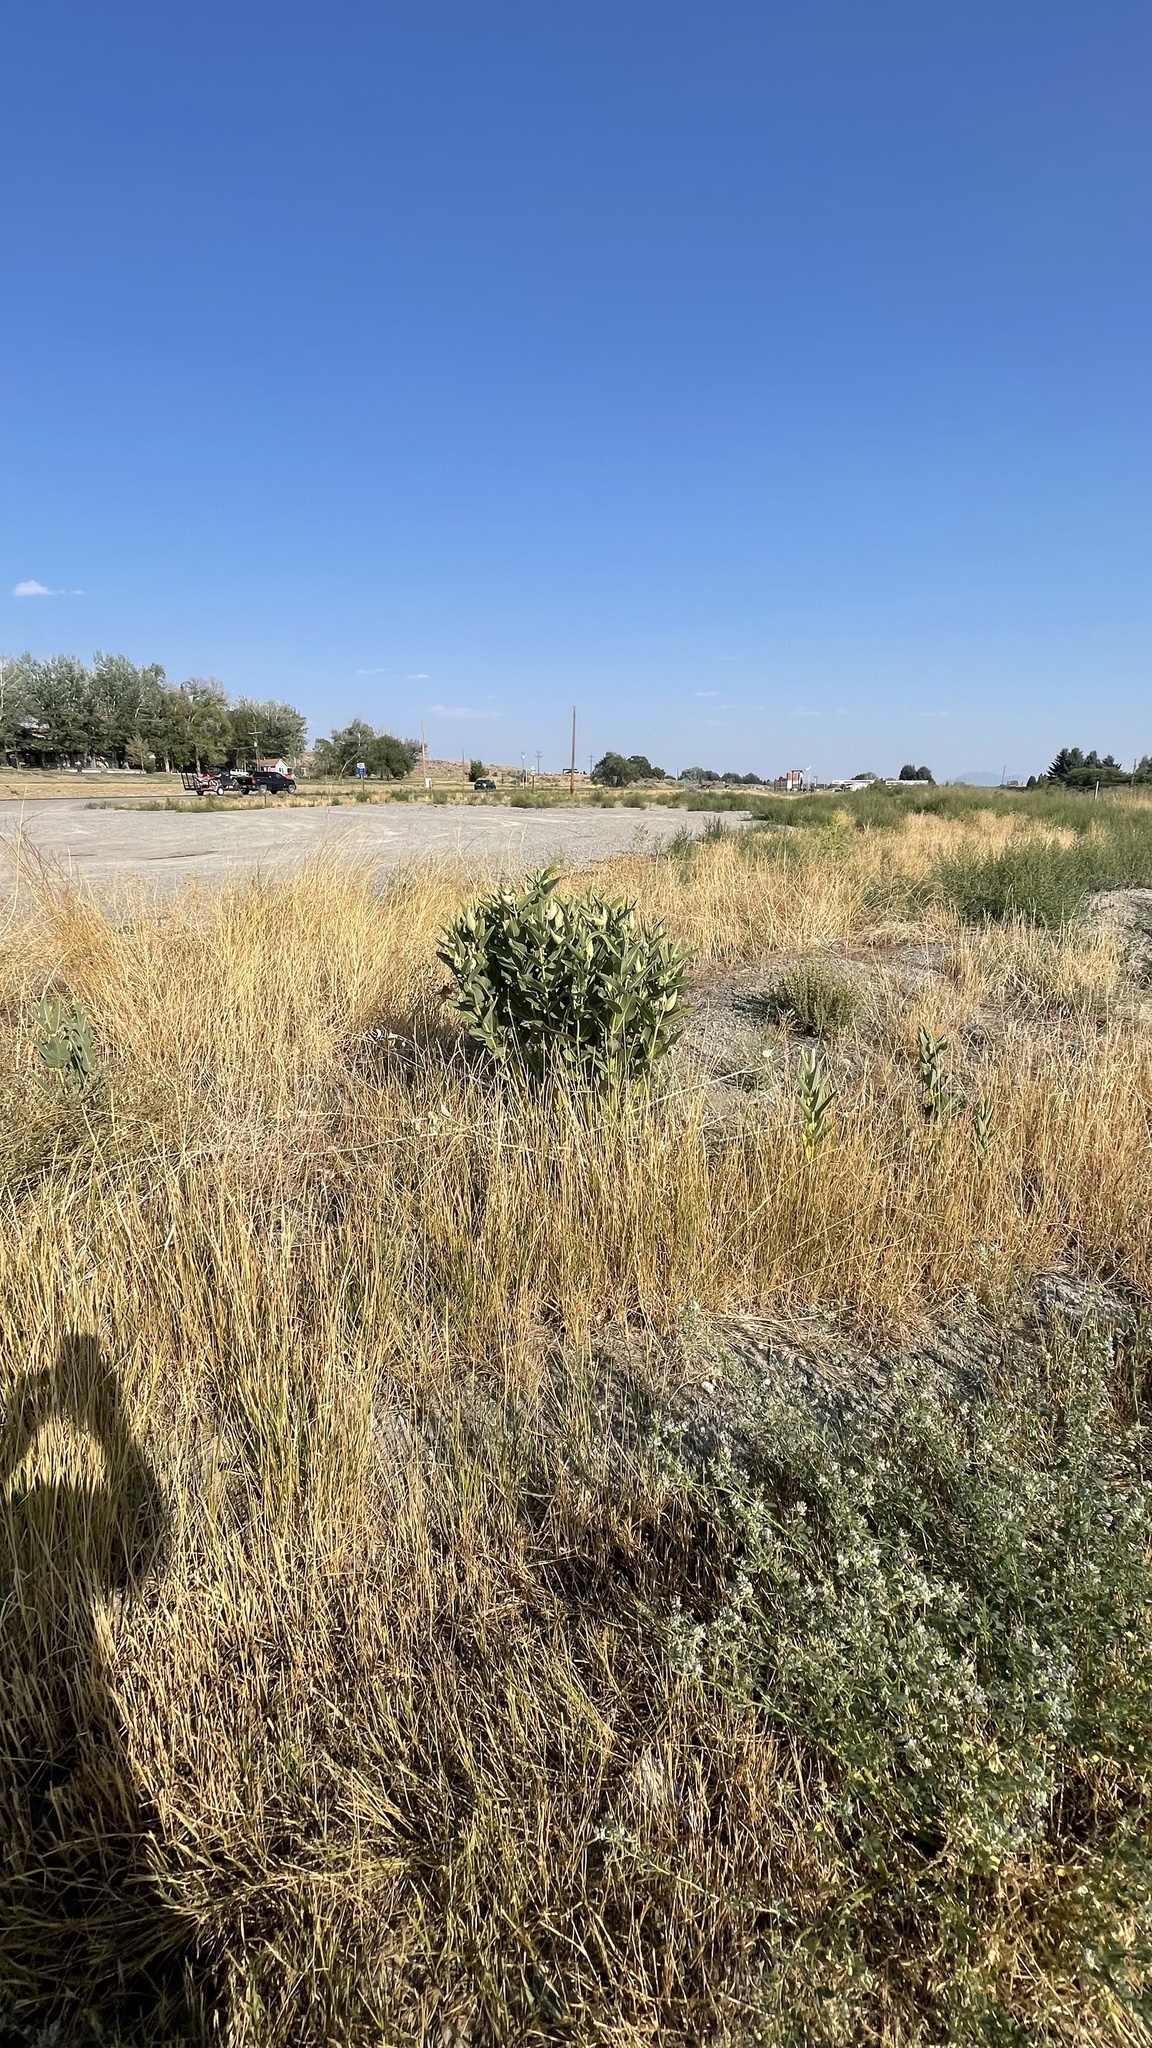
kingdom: Plantae
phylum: Tracheophyta
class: Magnoliopsida
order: Gentianales
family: Apocynaceae
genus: Asclepias
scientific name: Asclepias speciosa
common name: Showy milkweed
